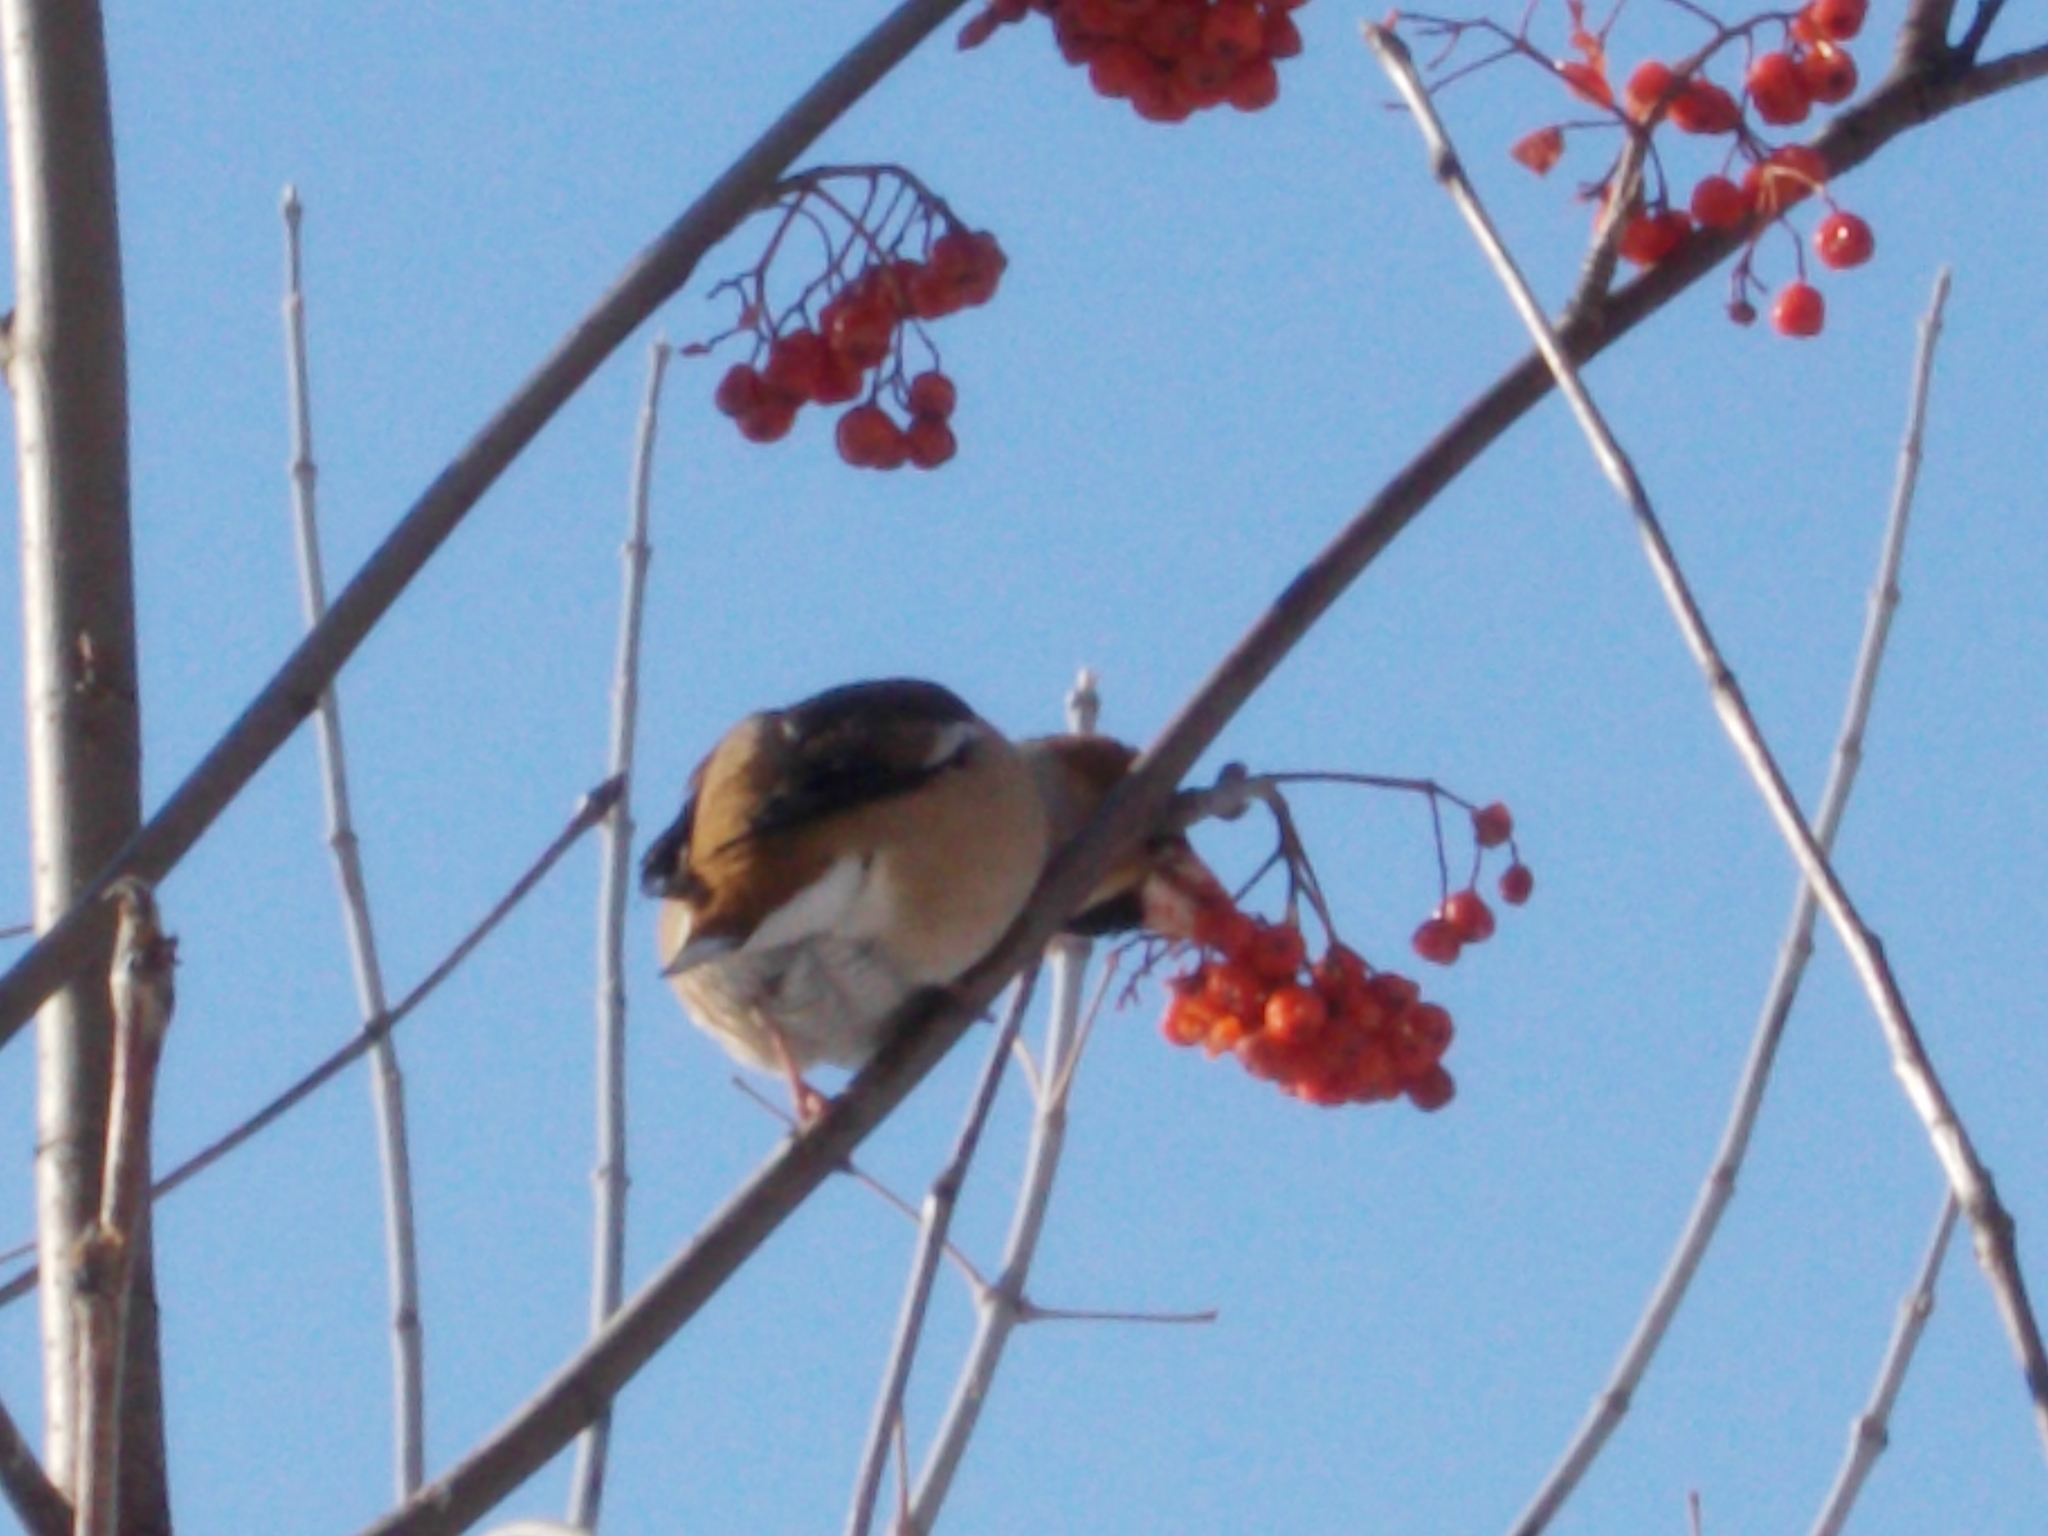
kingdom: Animalia
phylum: Chordata
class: Aves
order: Passeriformes
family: Fringillidae
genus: Coccothraustes
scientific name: Coccothraustes coccothraustes
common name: Hawfinch
